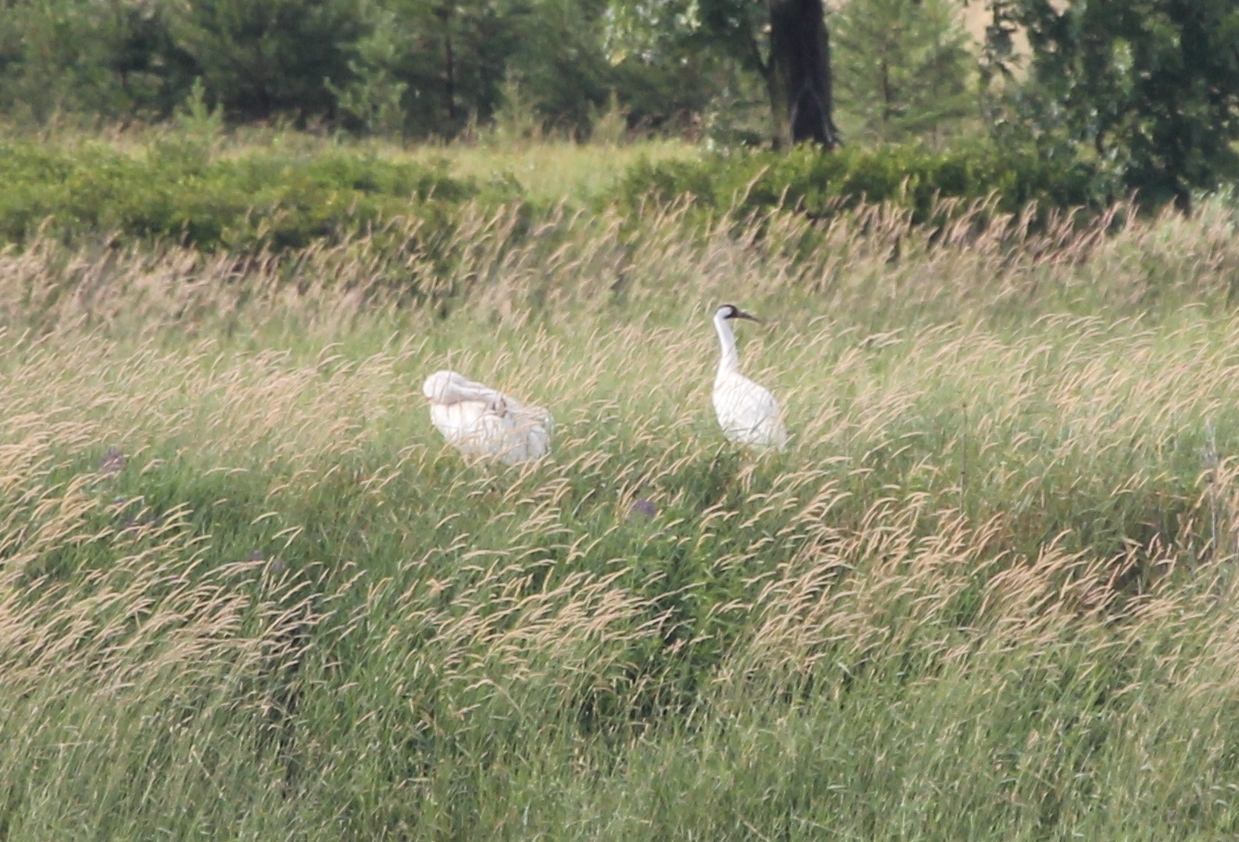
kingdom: Animalia
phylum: Chordata
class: Aves
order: Gruiformes
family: Gruidae
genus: Grus
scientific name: Grus americana
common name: Whooping crane
